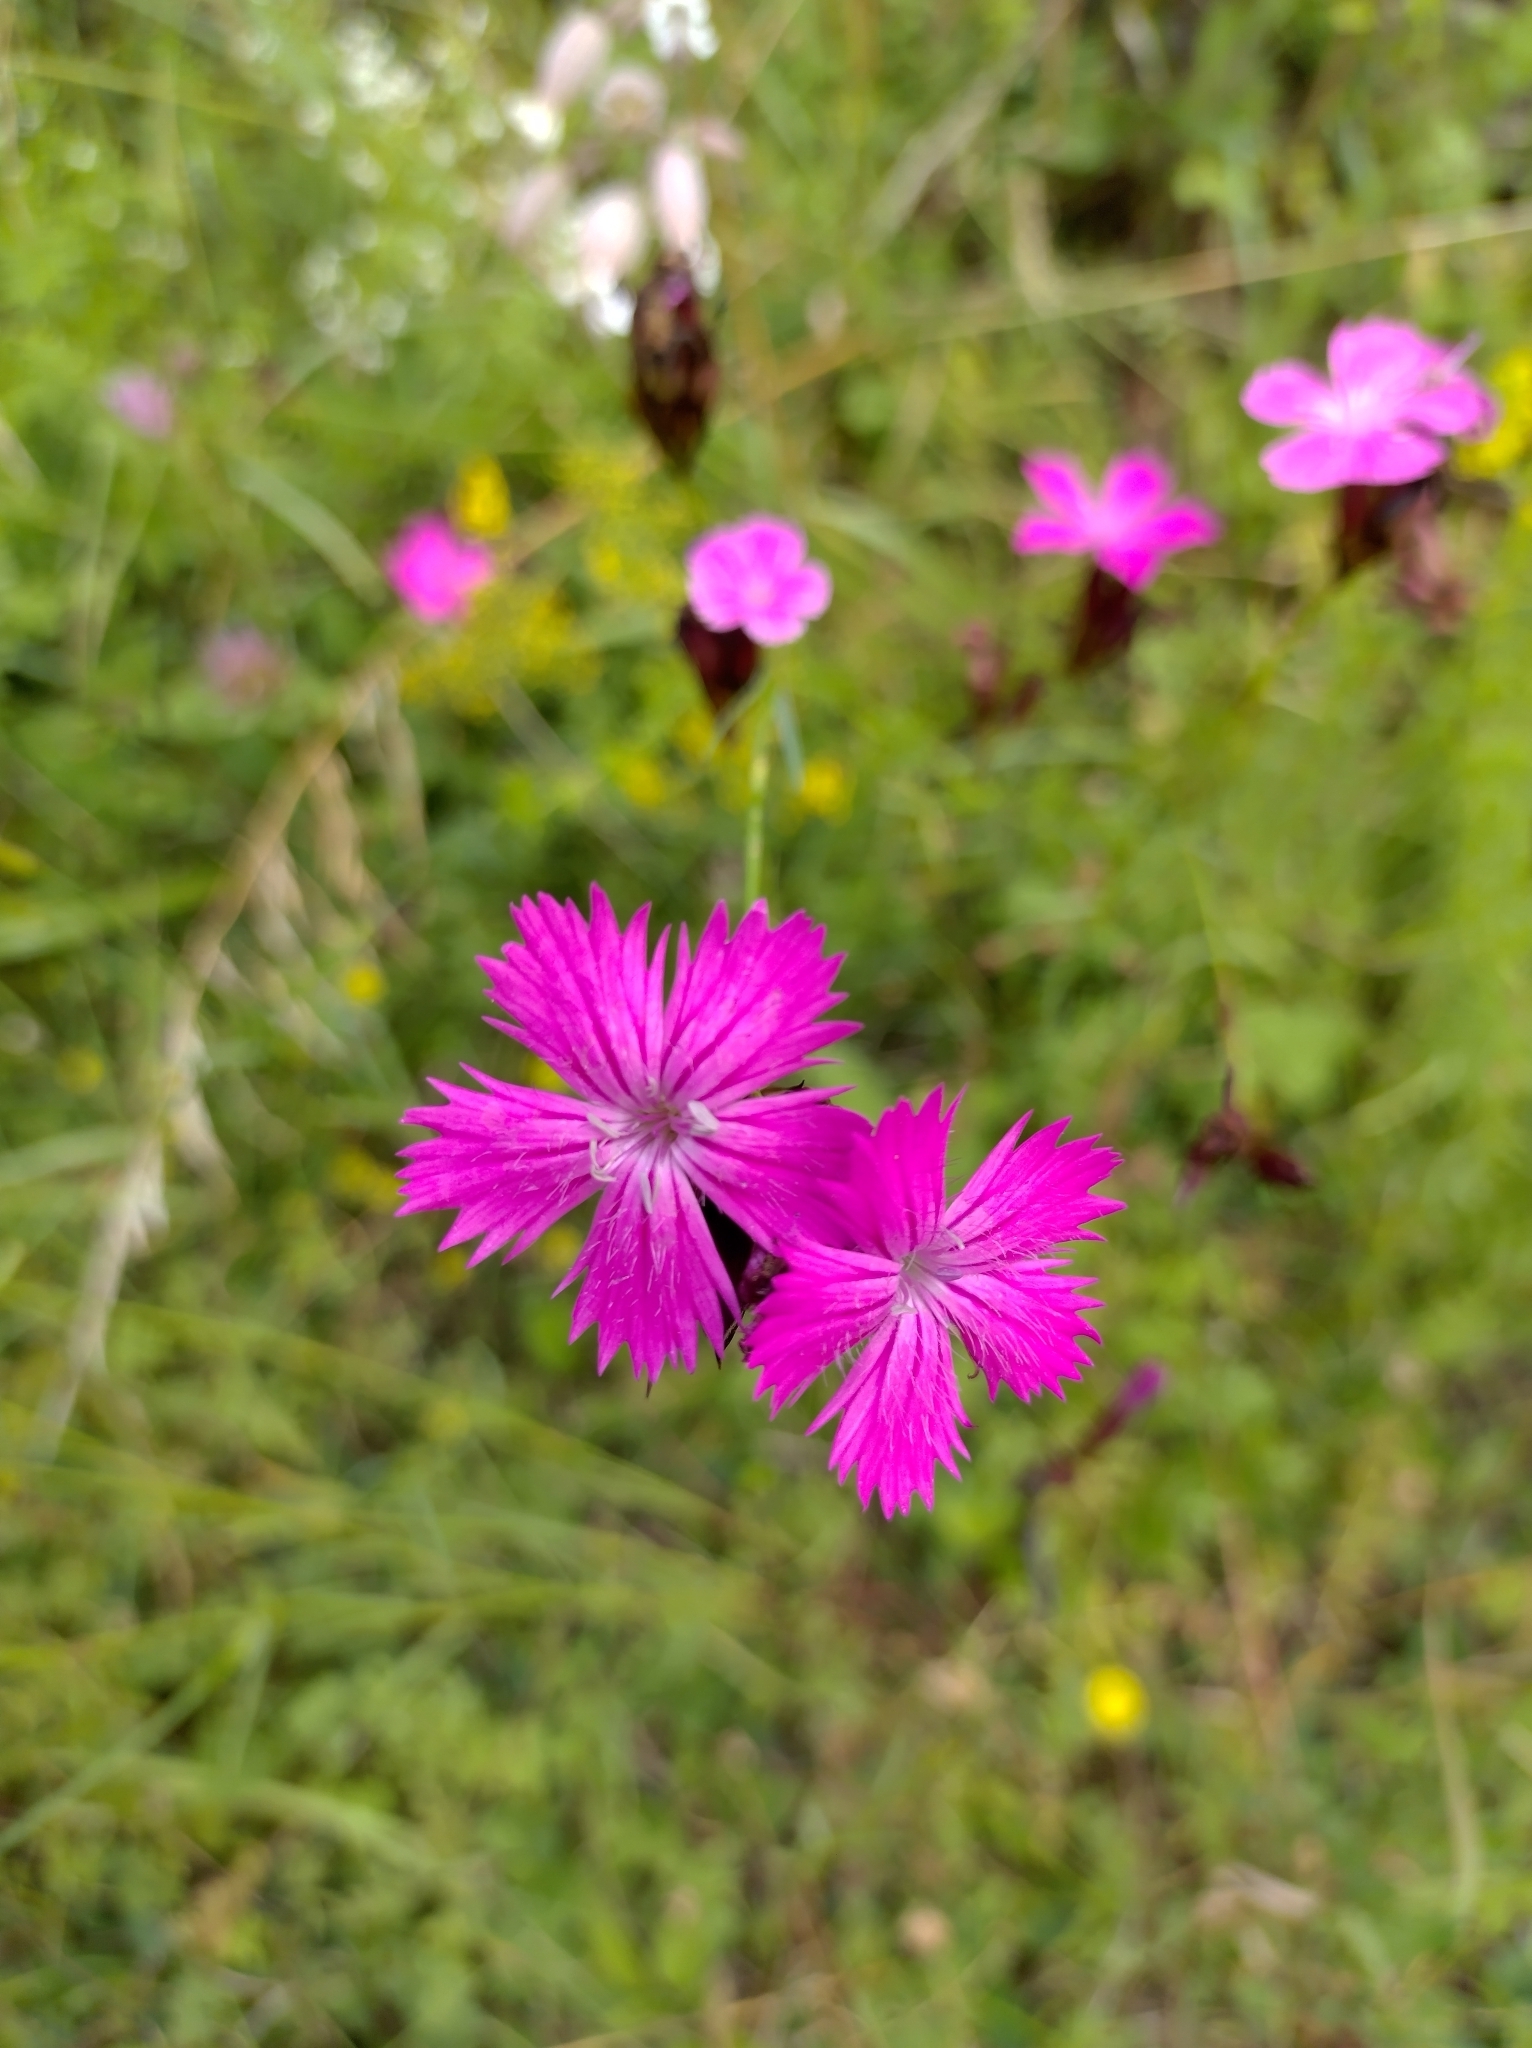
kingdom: Plantae
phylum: Tracheophyta
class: Magnoliopsida
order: Caryophyllales
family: Caryophyllaceae
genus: Dianthus
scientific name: Dianthus carthusianorum
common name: Carthusian pink
